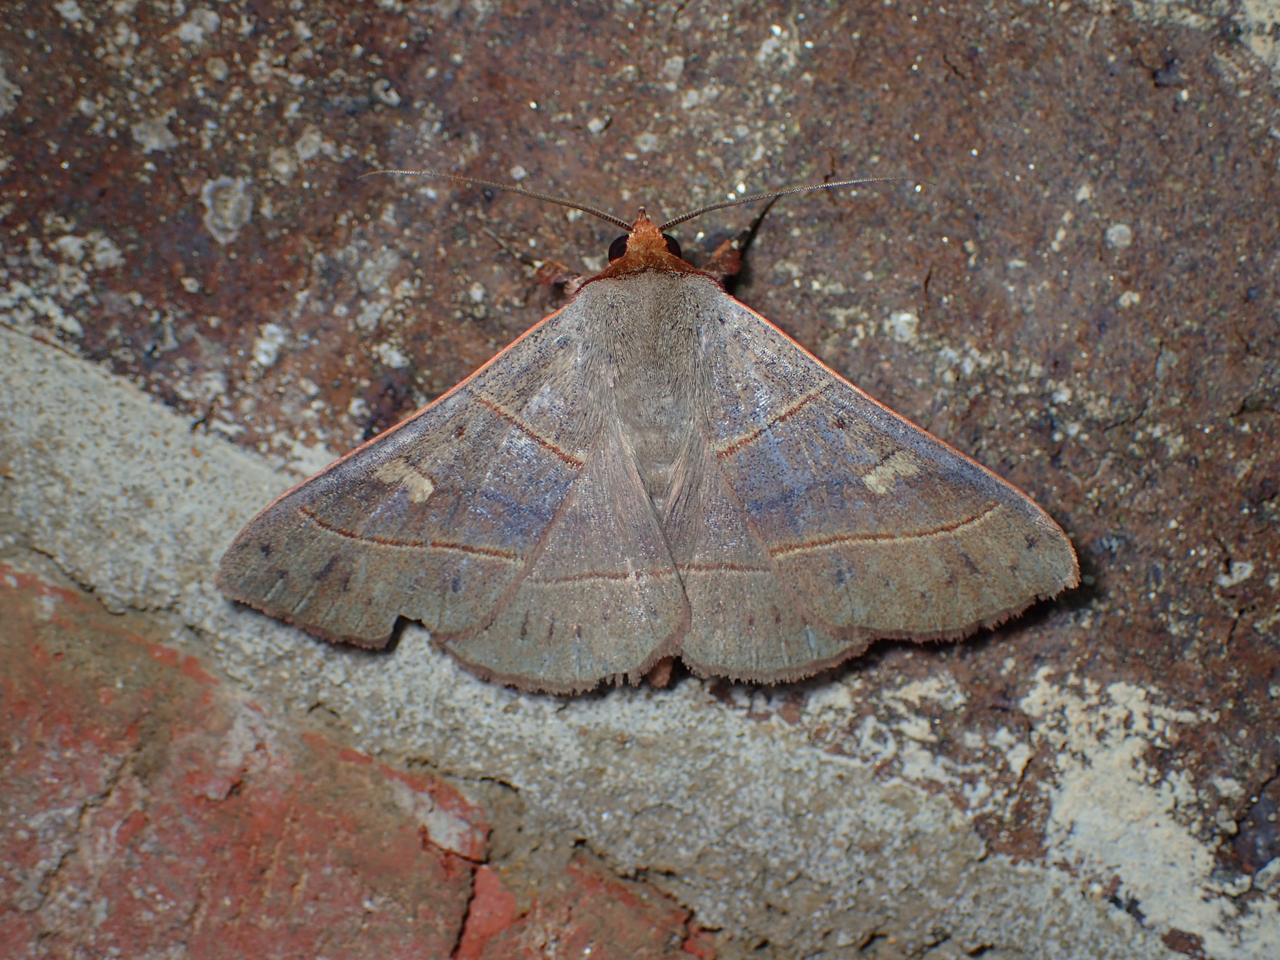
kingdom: Animalia
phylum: Arthropoda
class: Insecta
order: Lepidoptera
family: Erebidae
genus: Panopoda
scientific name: Panopoda rufimargo
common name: Red-lined panopoda moth
